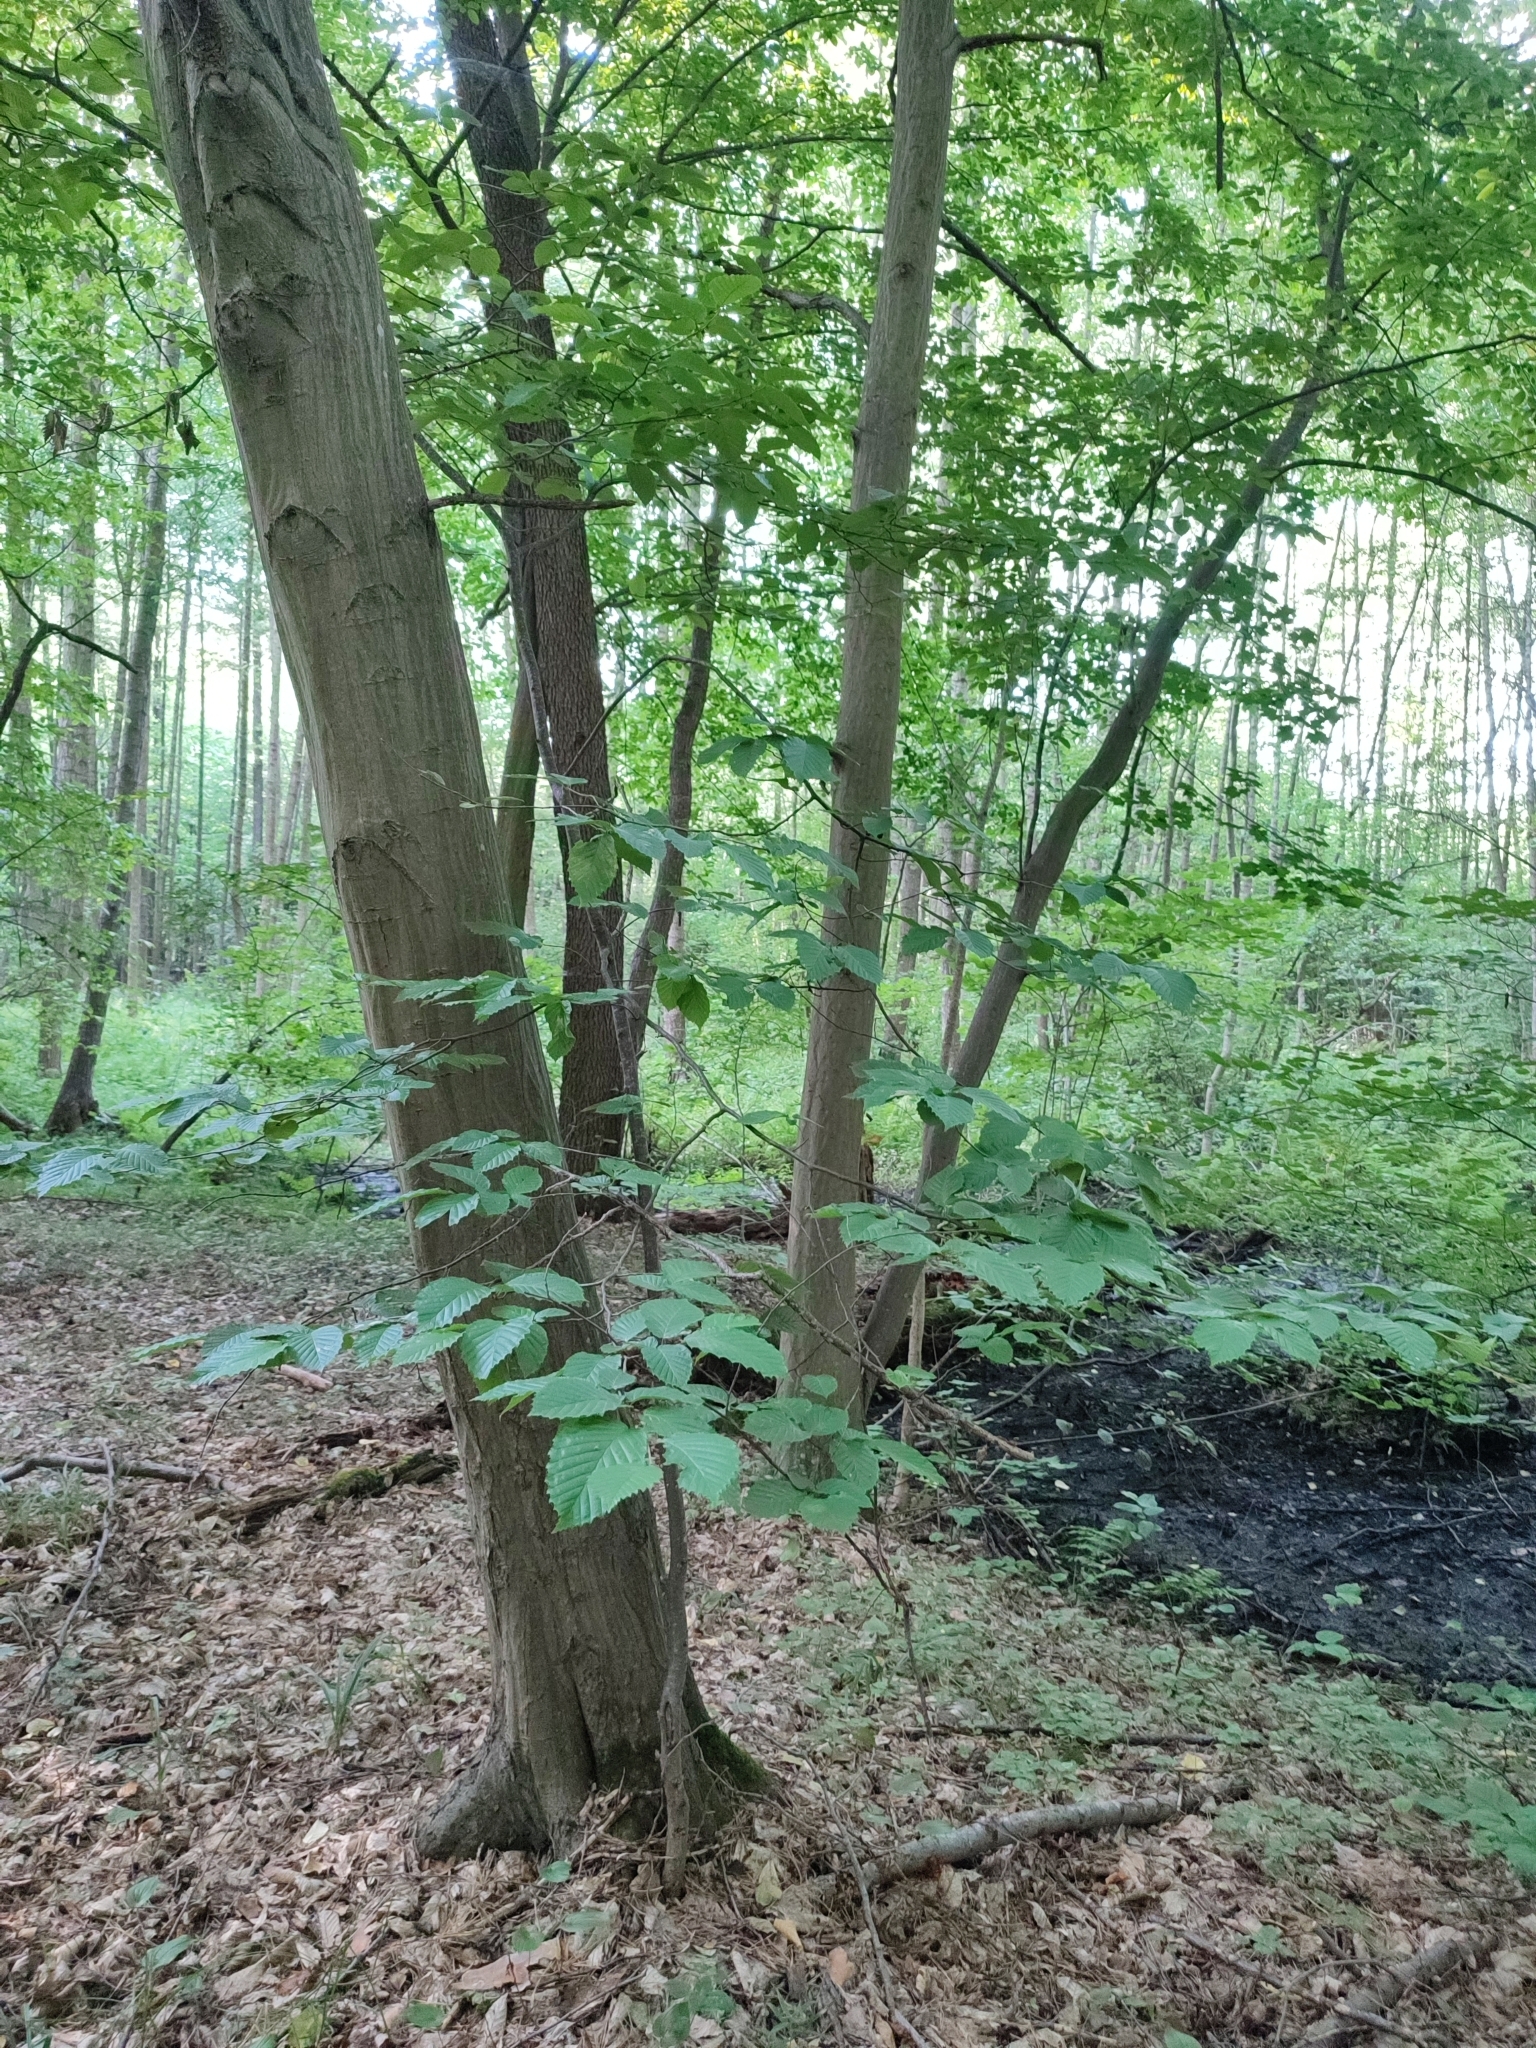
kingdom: Plantae
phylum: Tracheophyta
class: Magnoliopsida
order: Fagales
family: Betulaceae
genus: Carpinus
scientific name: Carpinus betulus
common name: Hornbeam
